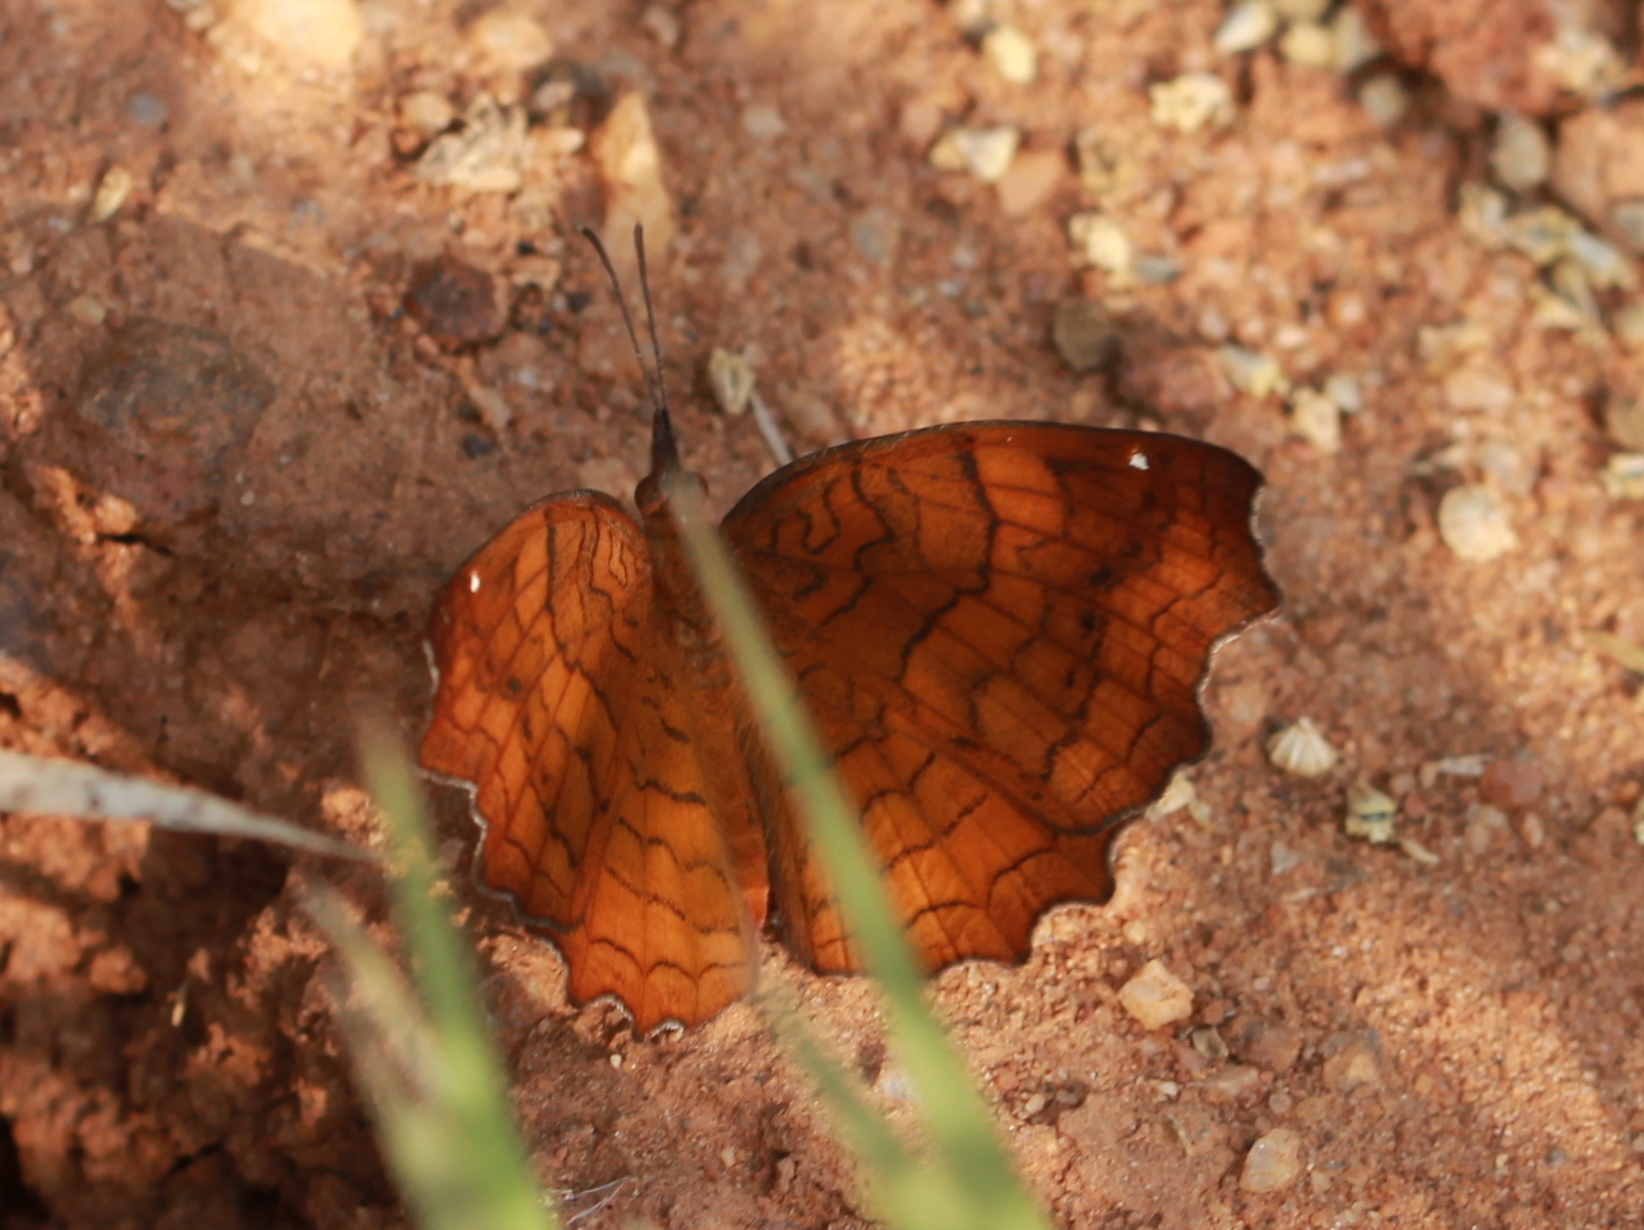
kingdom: Animalia
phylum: Arthropoda
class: Insecta
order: Lepidoptera
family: Nymphalidae
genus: Ariadne
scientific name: Ariadne ariadne
